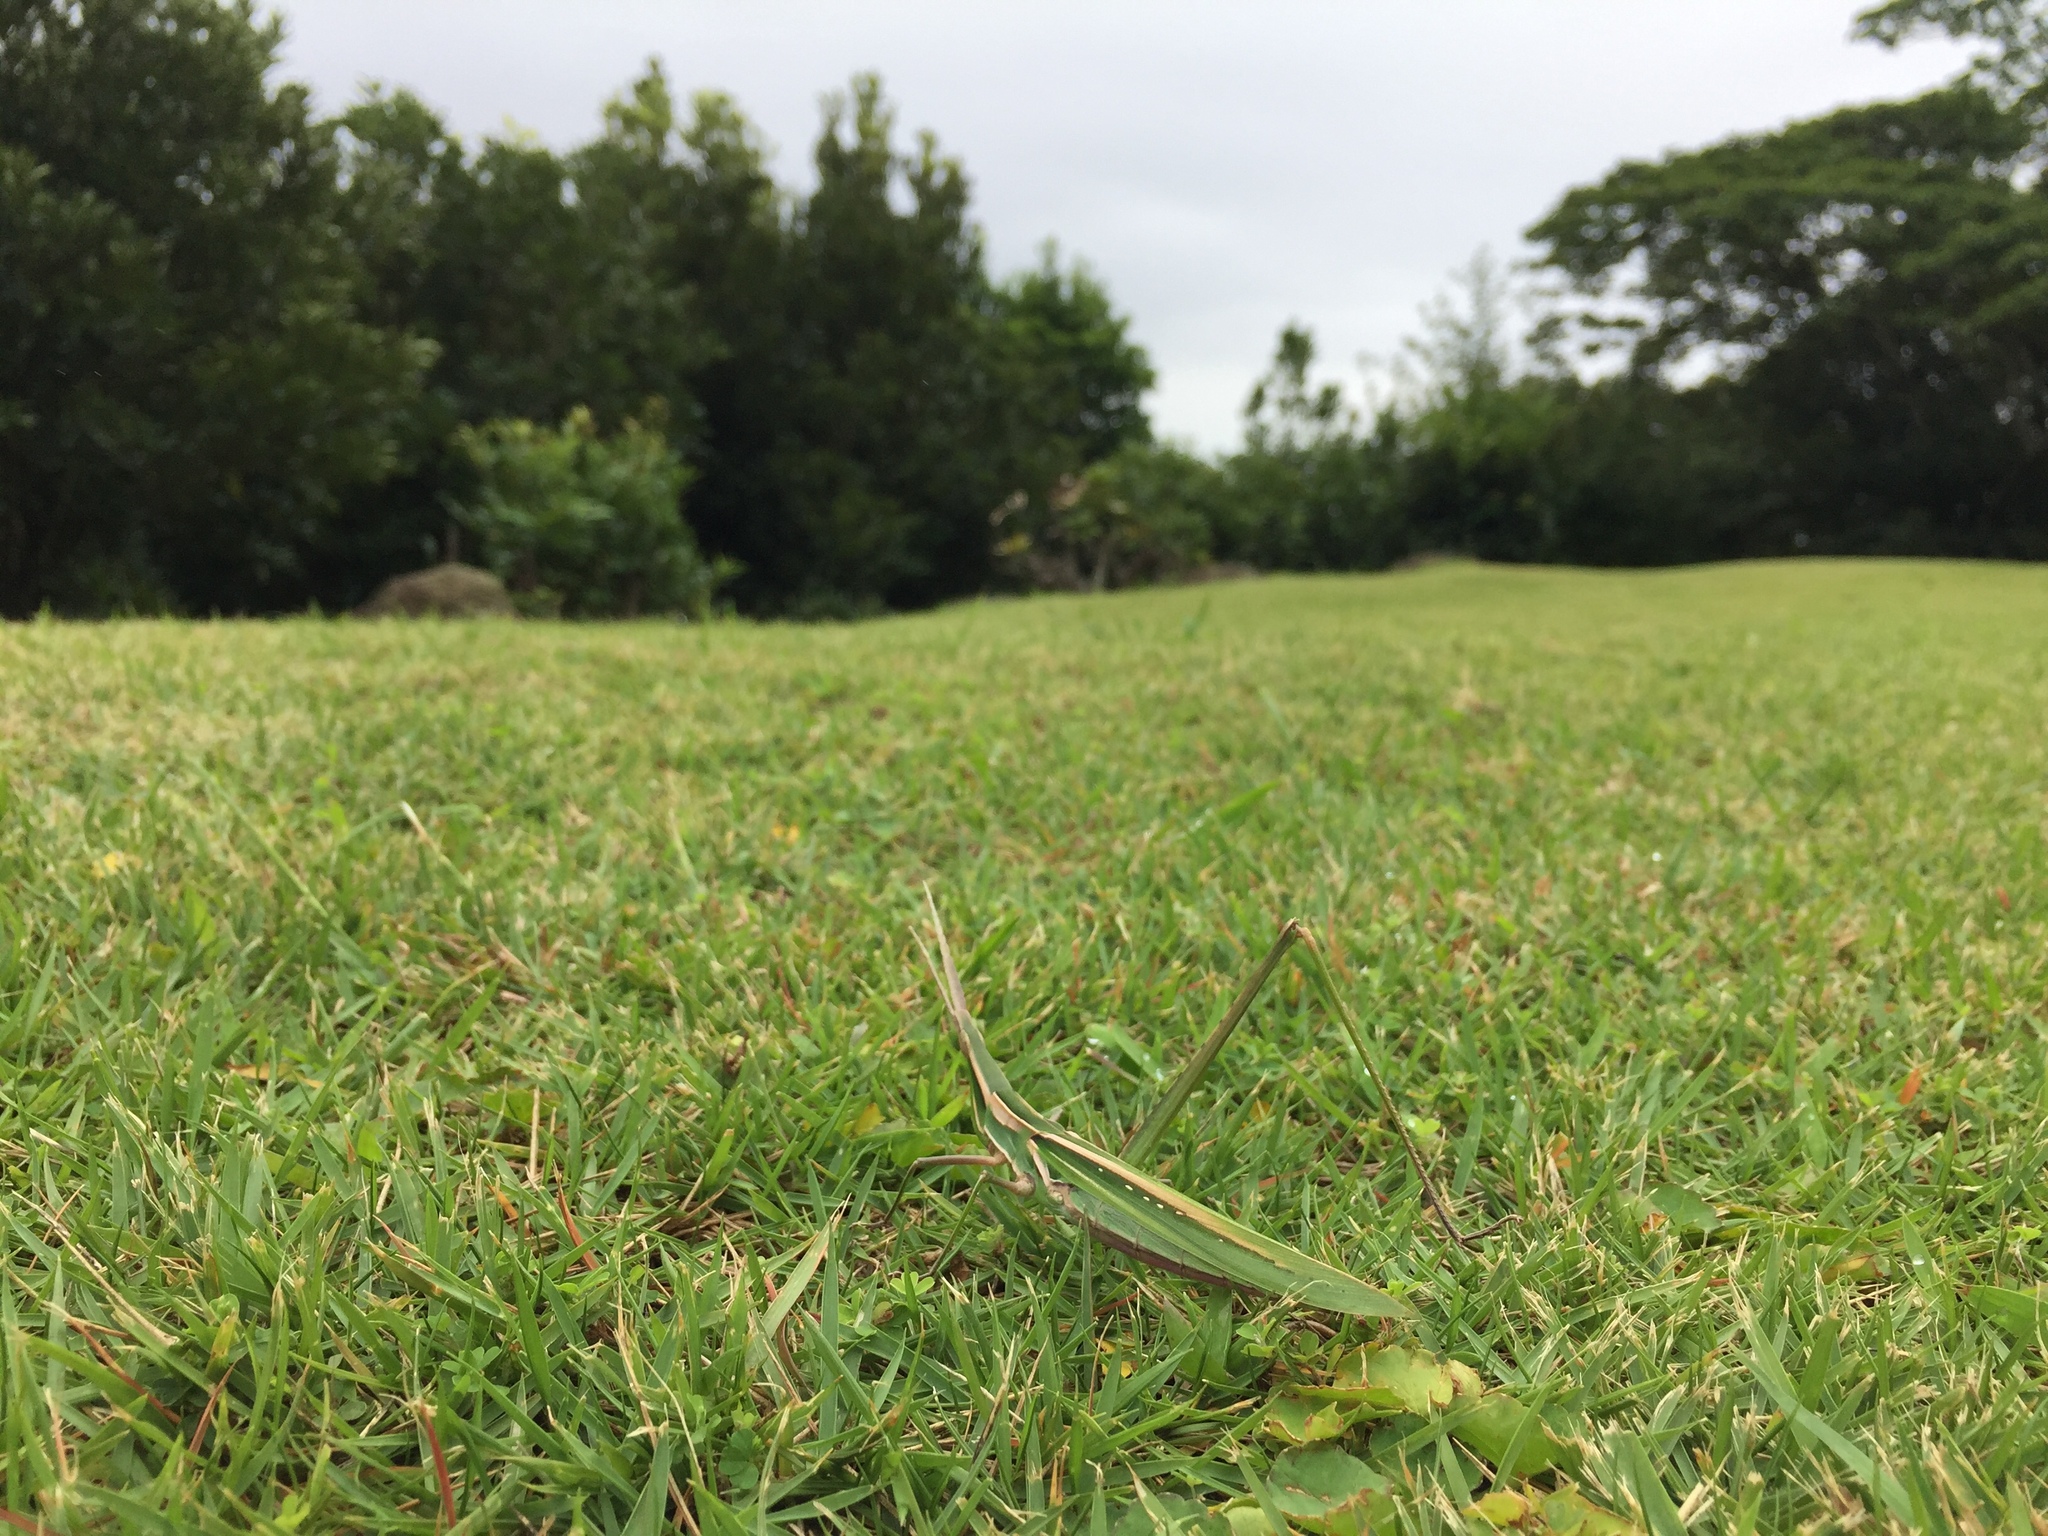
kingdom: Animalia
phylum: Arthropoda
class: Insecta
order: Orthoptera
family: Acrididae
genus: Acrida
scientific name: Acrida cinerea
